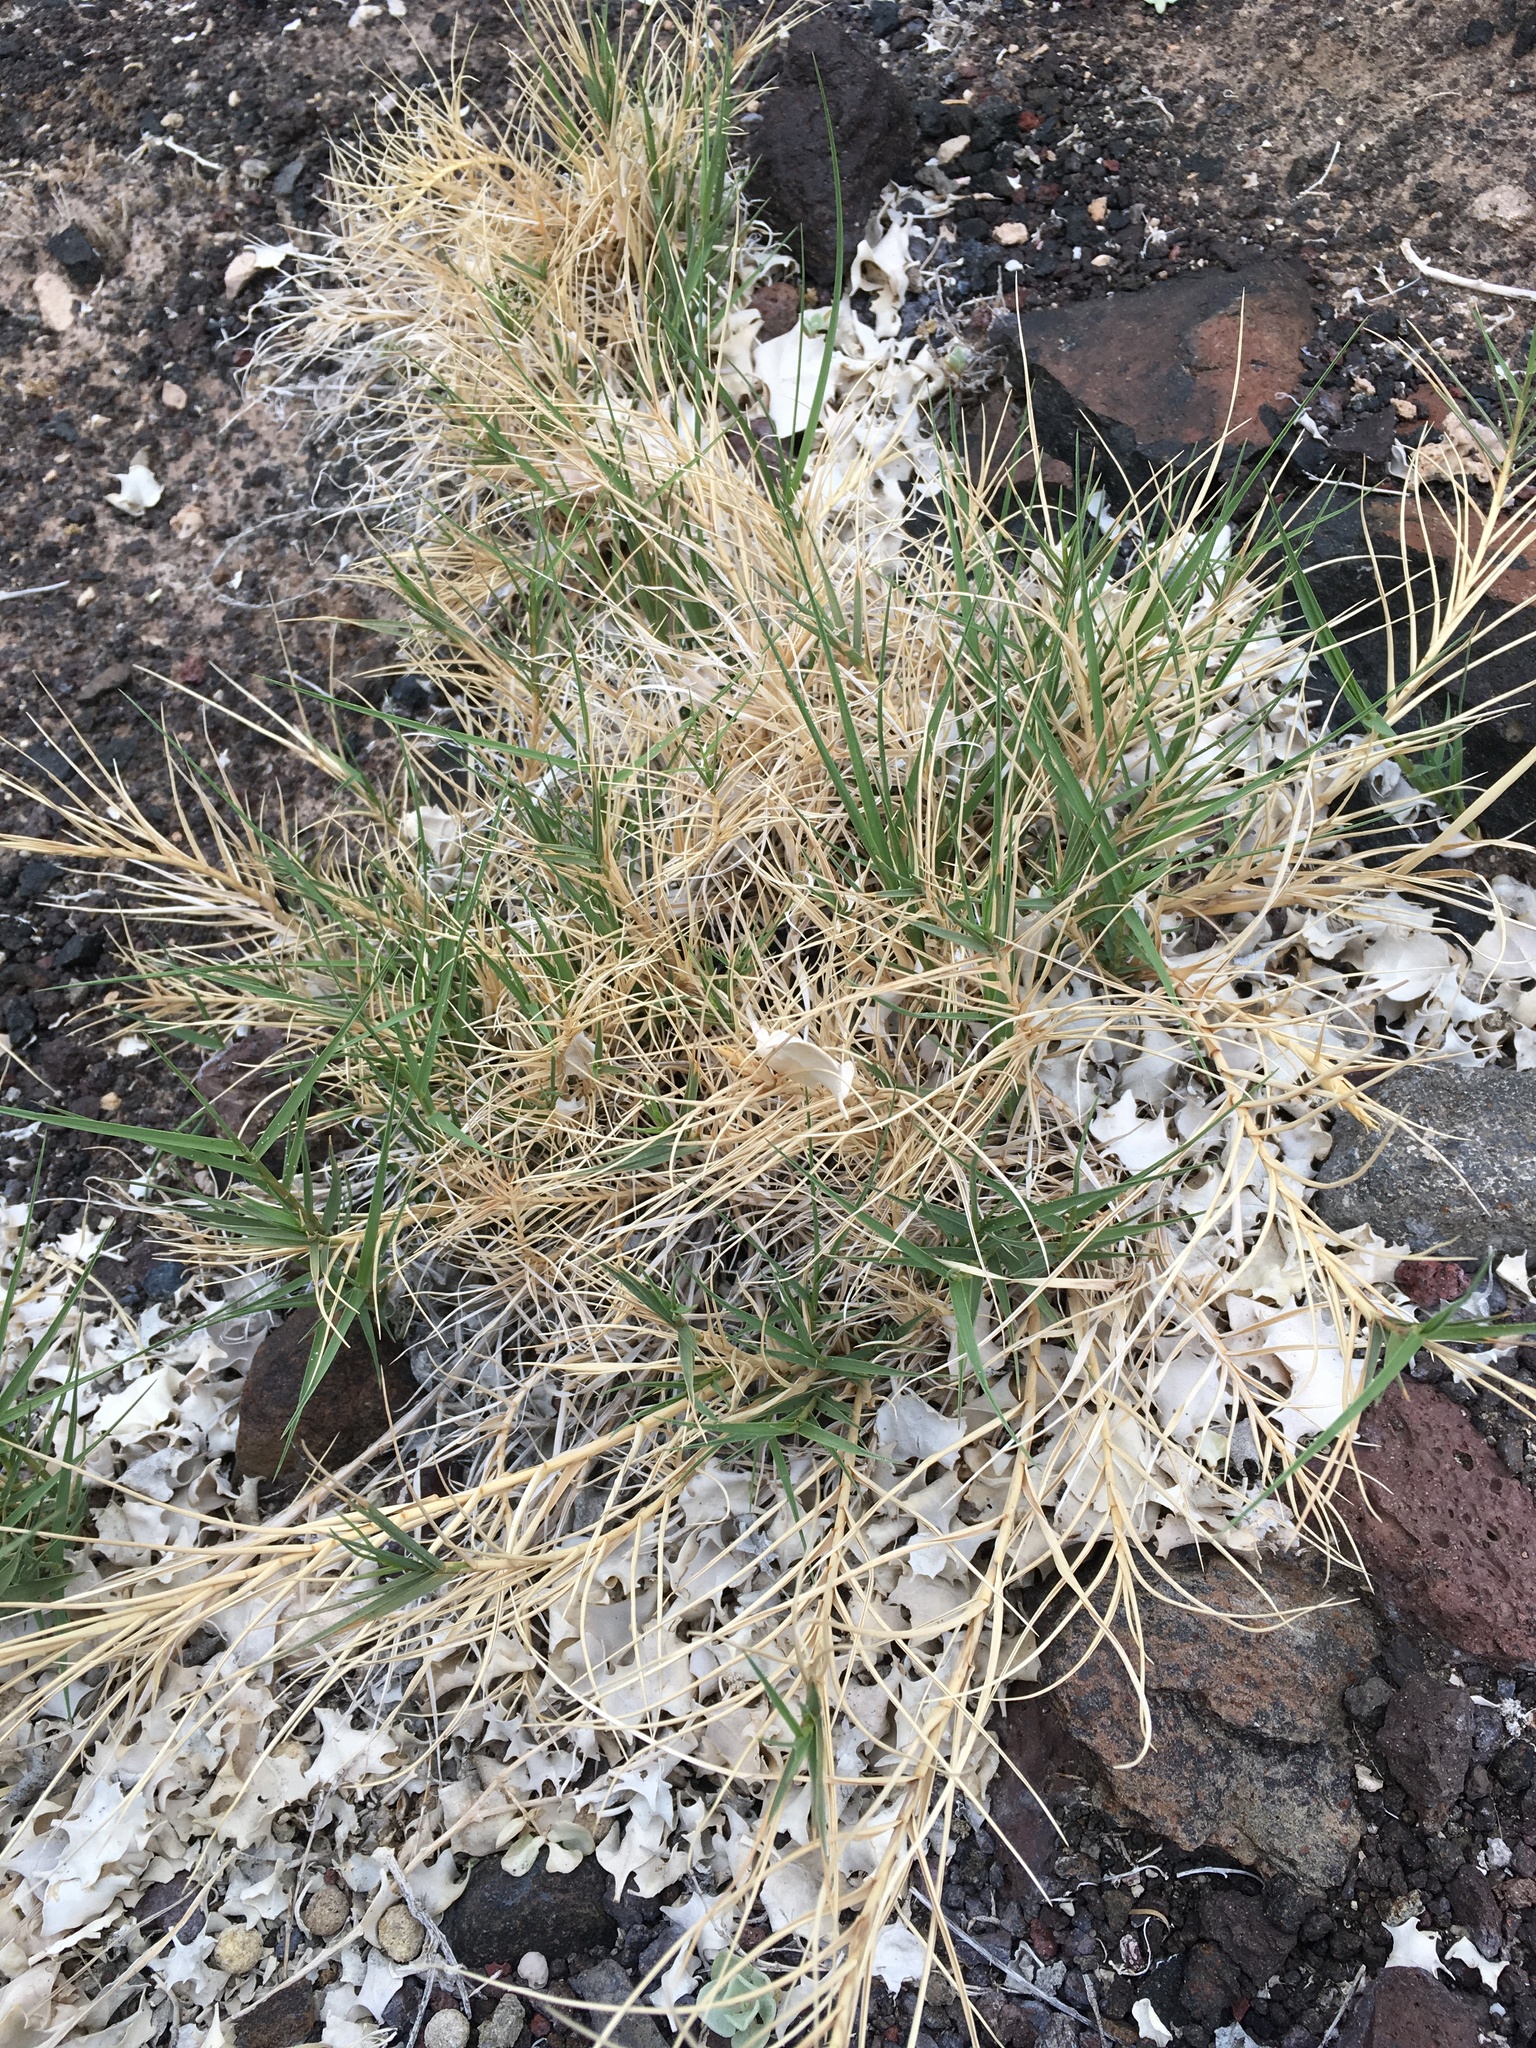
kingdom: Plantae
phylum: Tracheophyta
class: Liliopsida
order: Poales
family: Poaceae
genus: Distichlis
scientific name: Distichlis spicata
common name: Saltgrass
